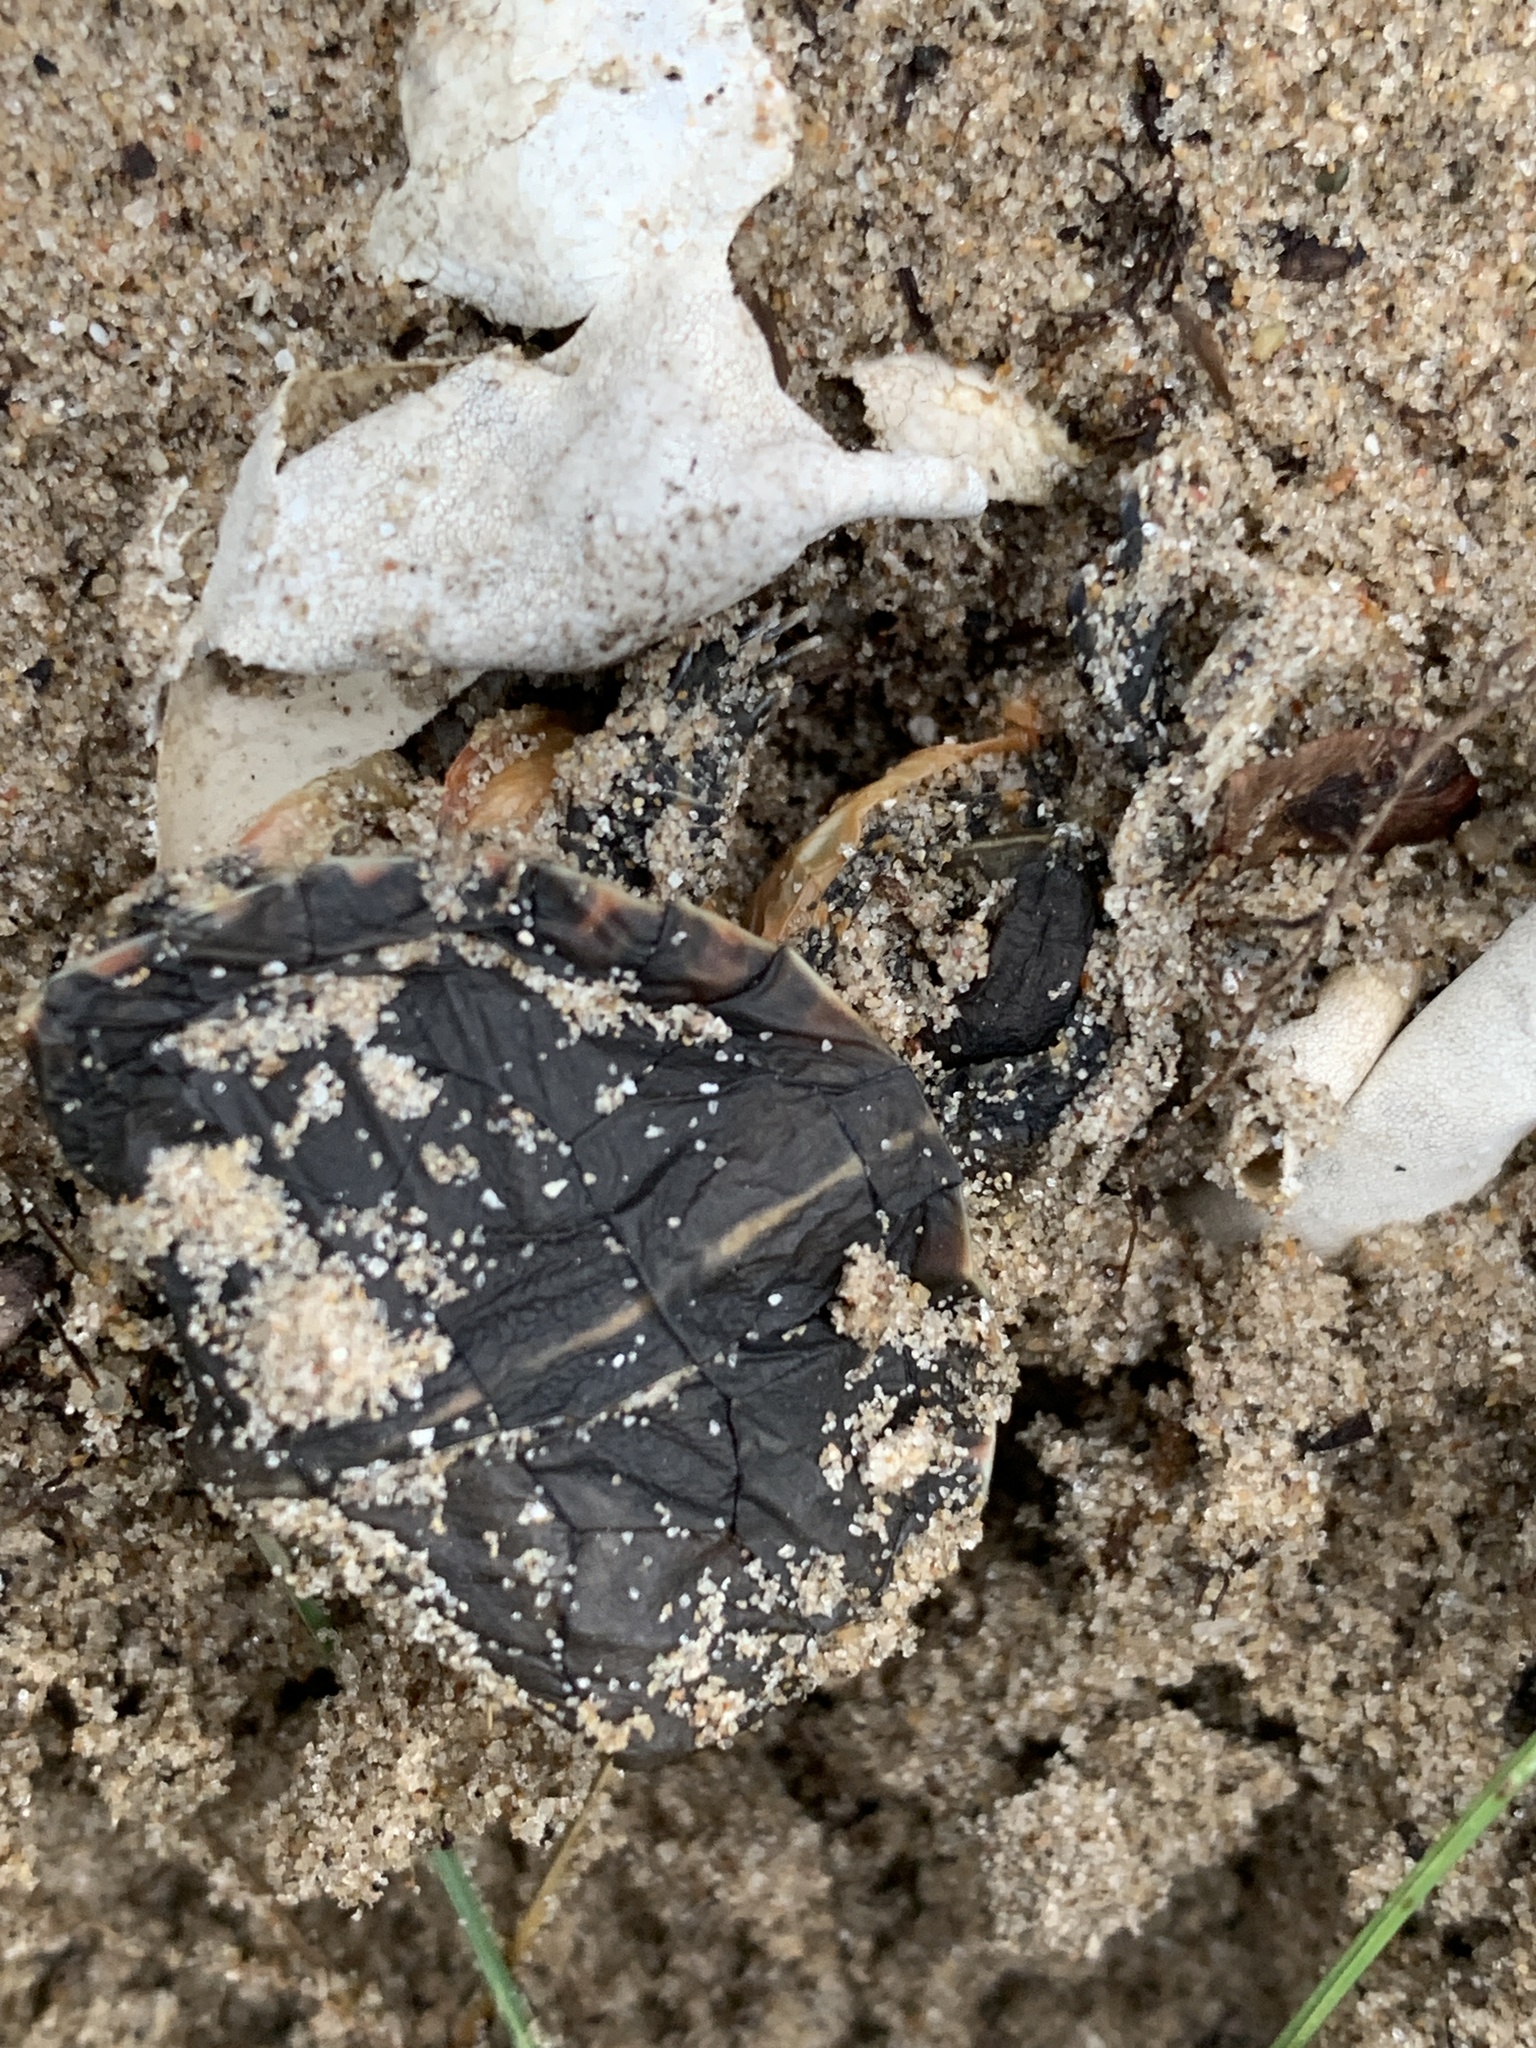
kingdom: Animalia
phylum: Chordata
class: Testudines
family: Emydidae
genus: Chrysemys
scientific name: Chrysemys picta
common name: Painted turtle
